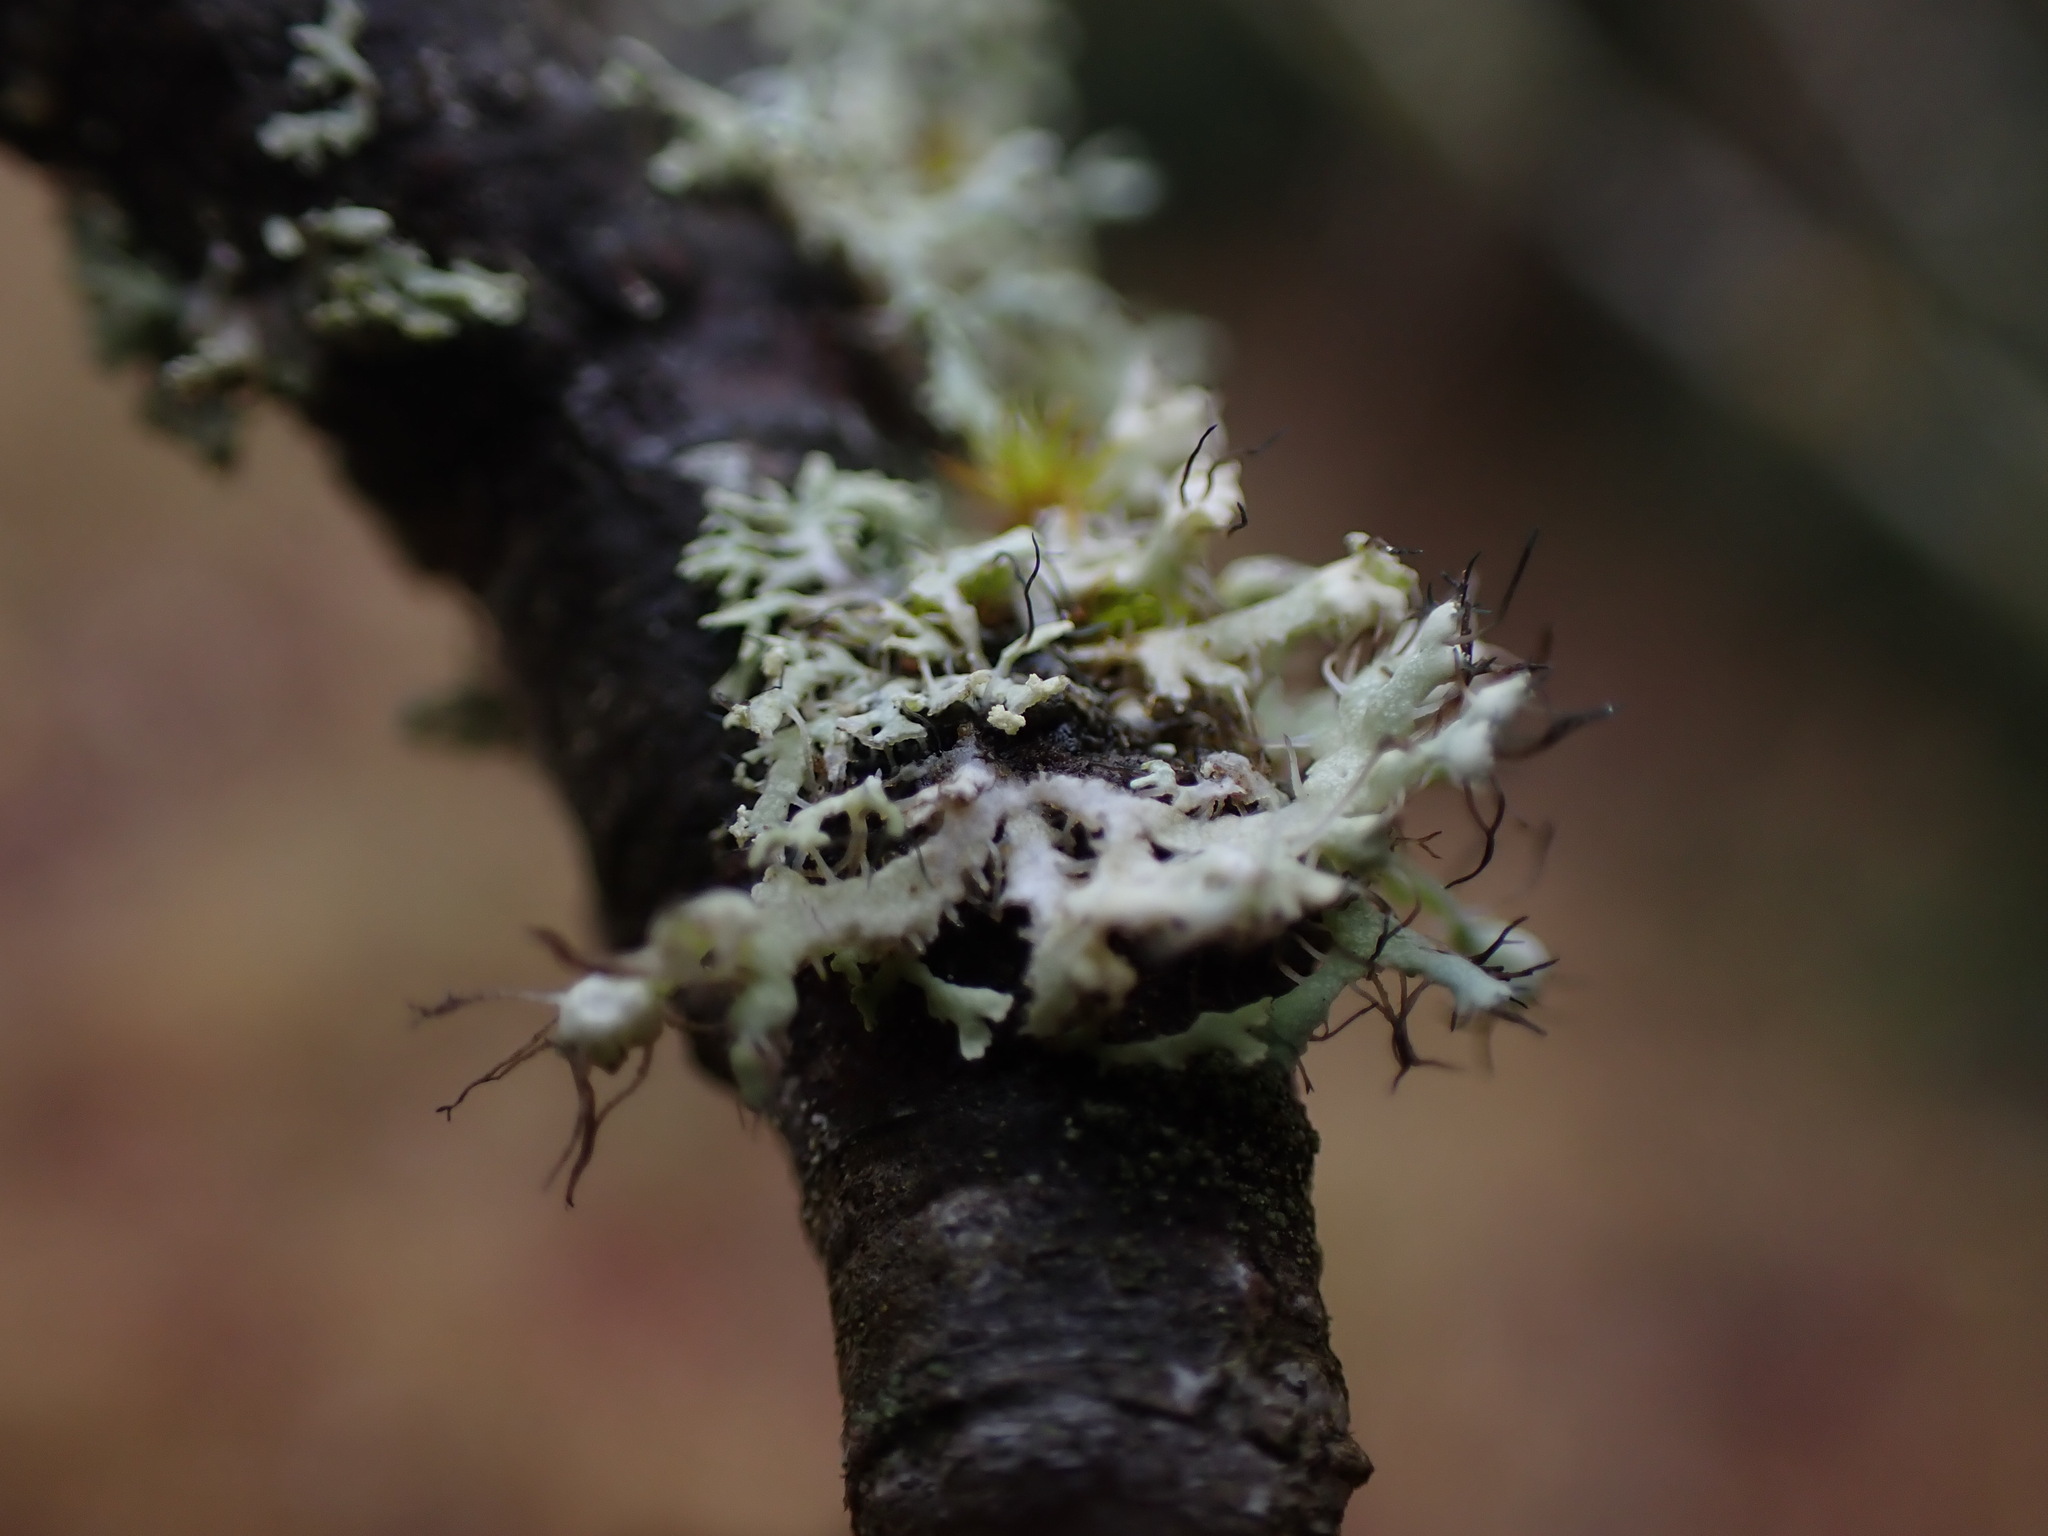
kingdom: Fungi
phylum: Ascomycota
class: Lecanoromycetes
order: Caliciales
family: Physciaceae
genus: Physcia
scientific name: Physcia tenella
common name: Fringed rosette lichen
